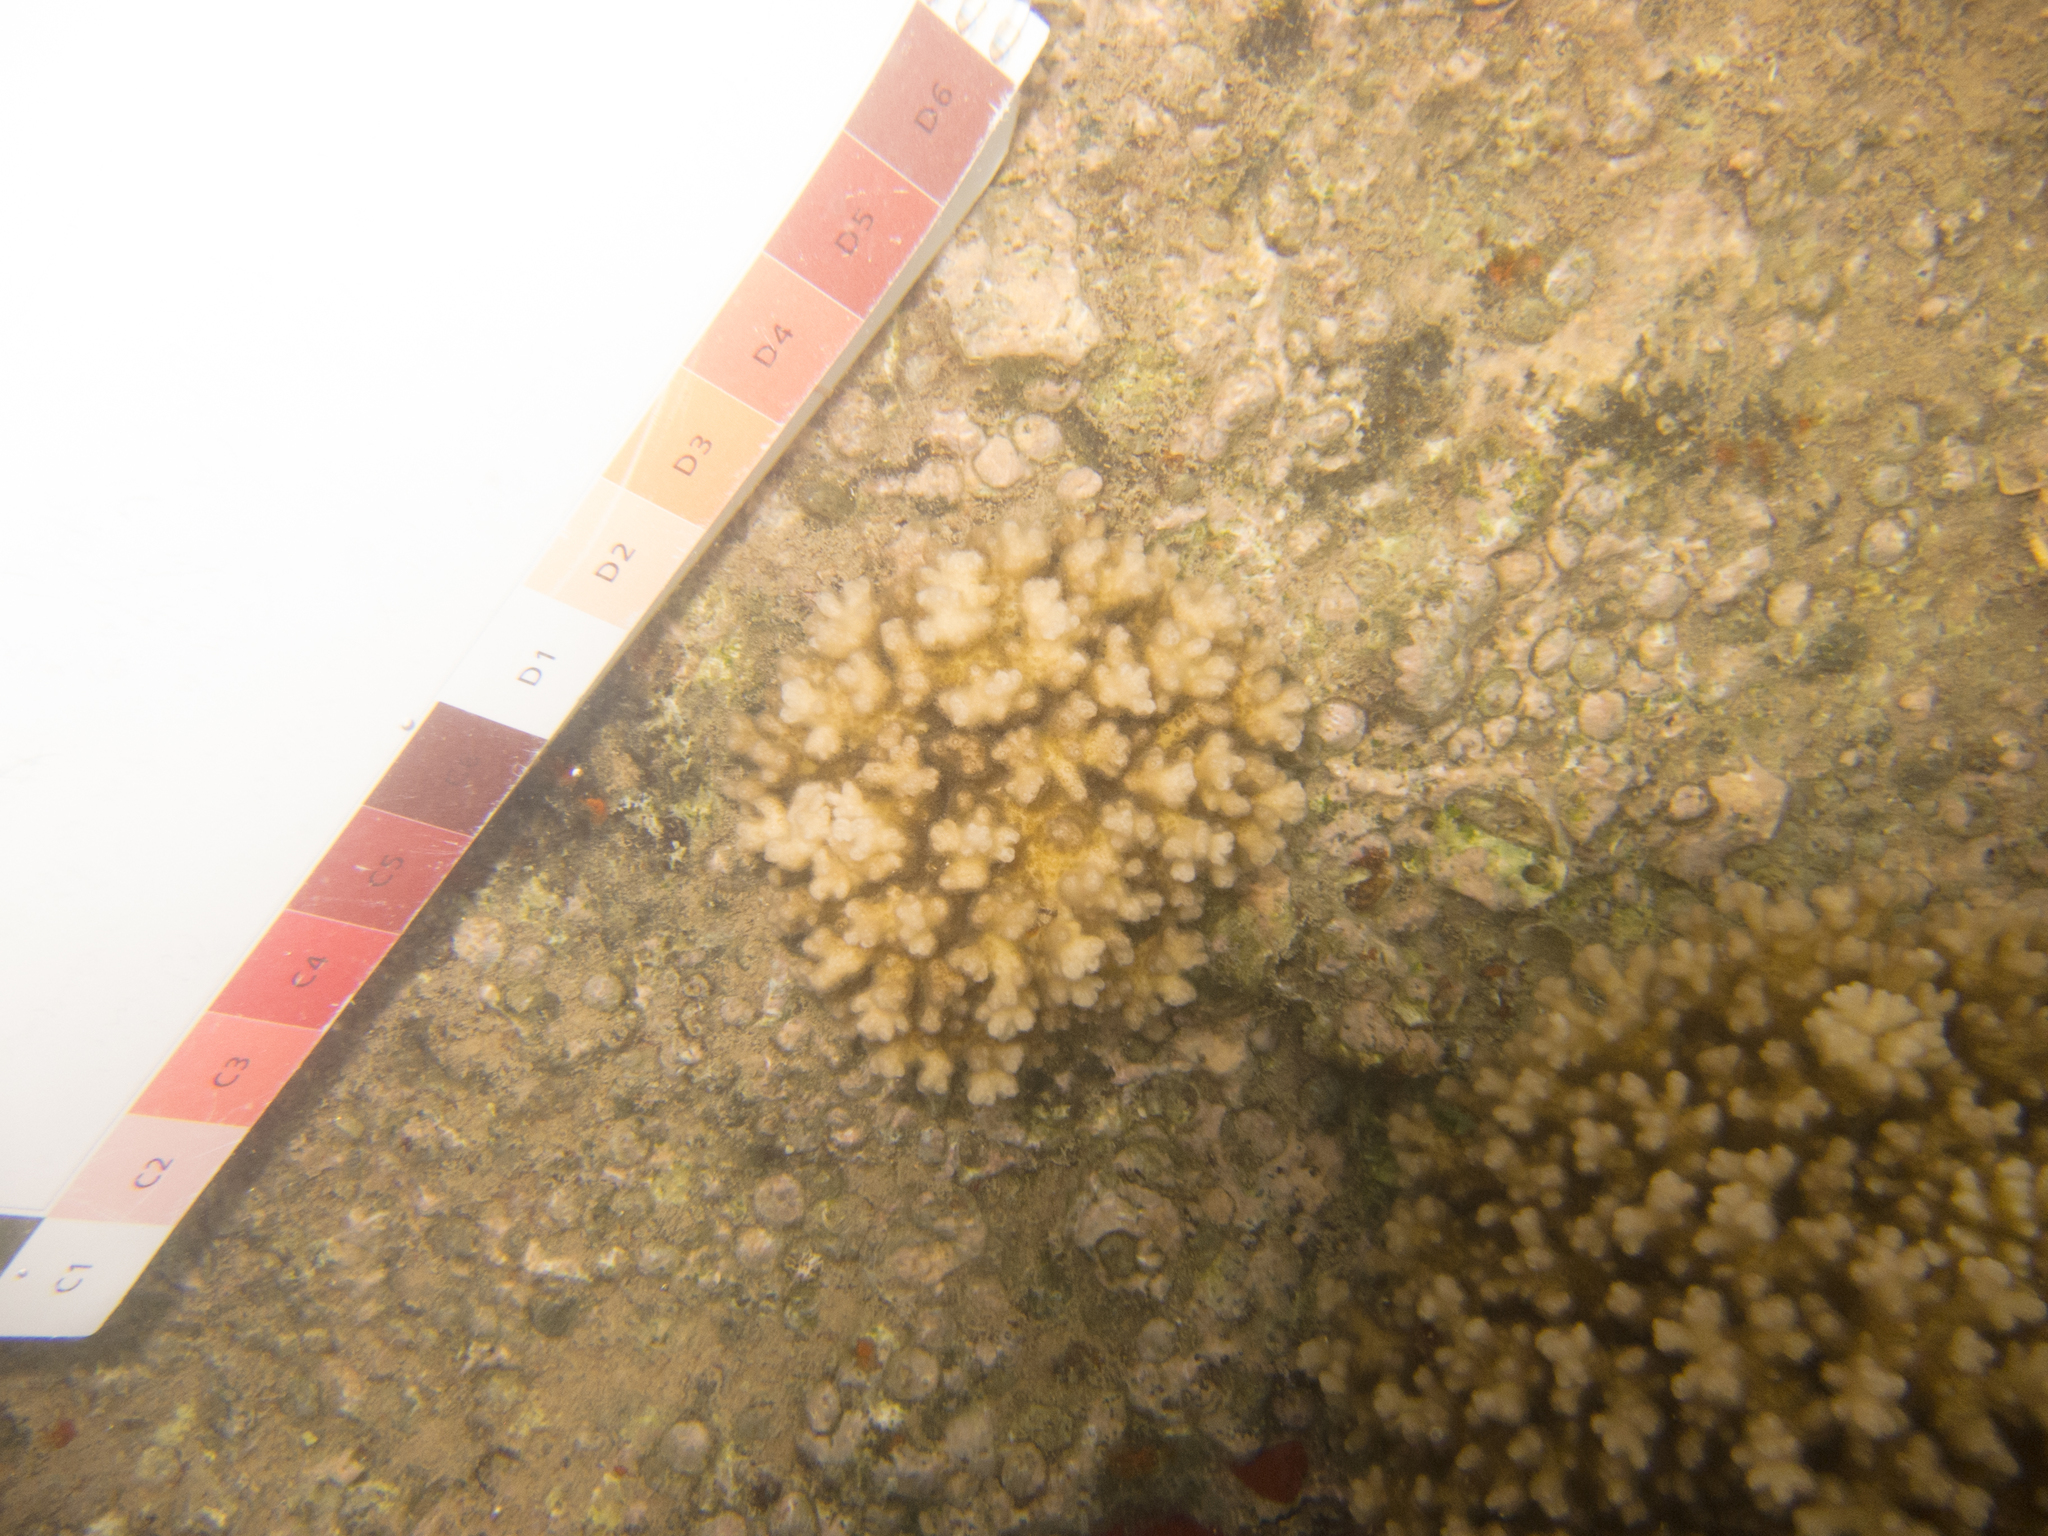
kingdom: Animalia
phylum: Cnidaria
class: Anthozoa
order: Scleractinia
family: Pocilloporidae
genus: Pocillopora
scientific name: Pocillopora damicornis
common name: Cauliflower coral
